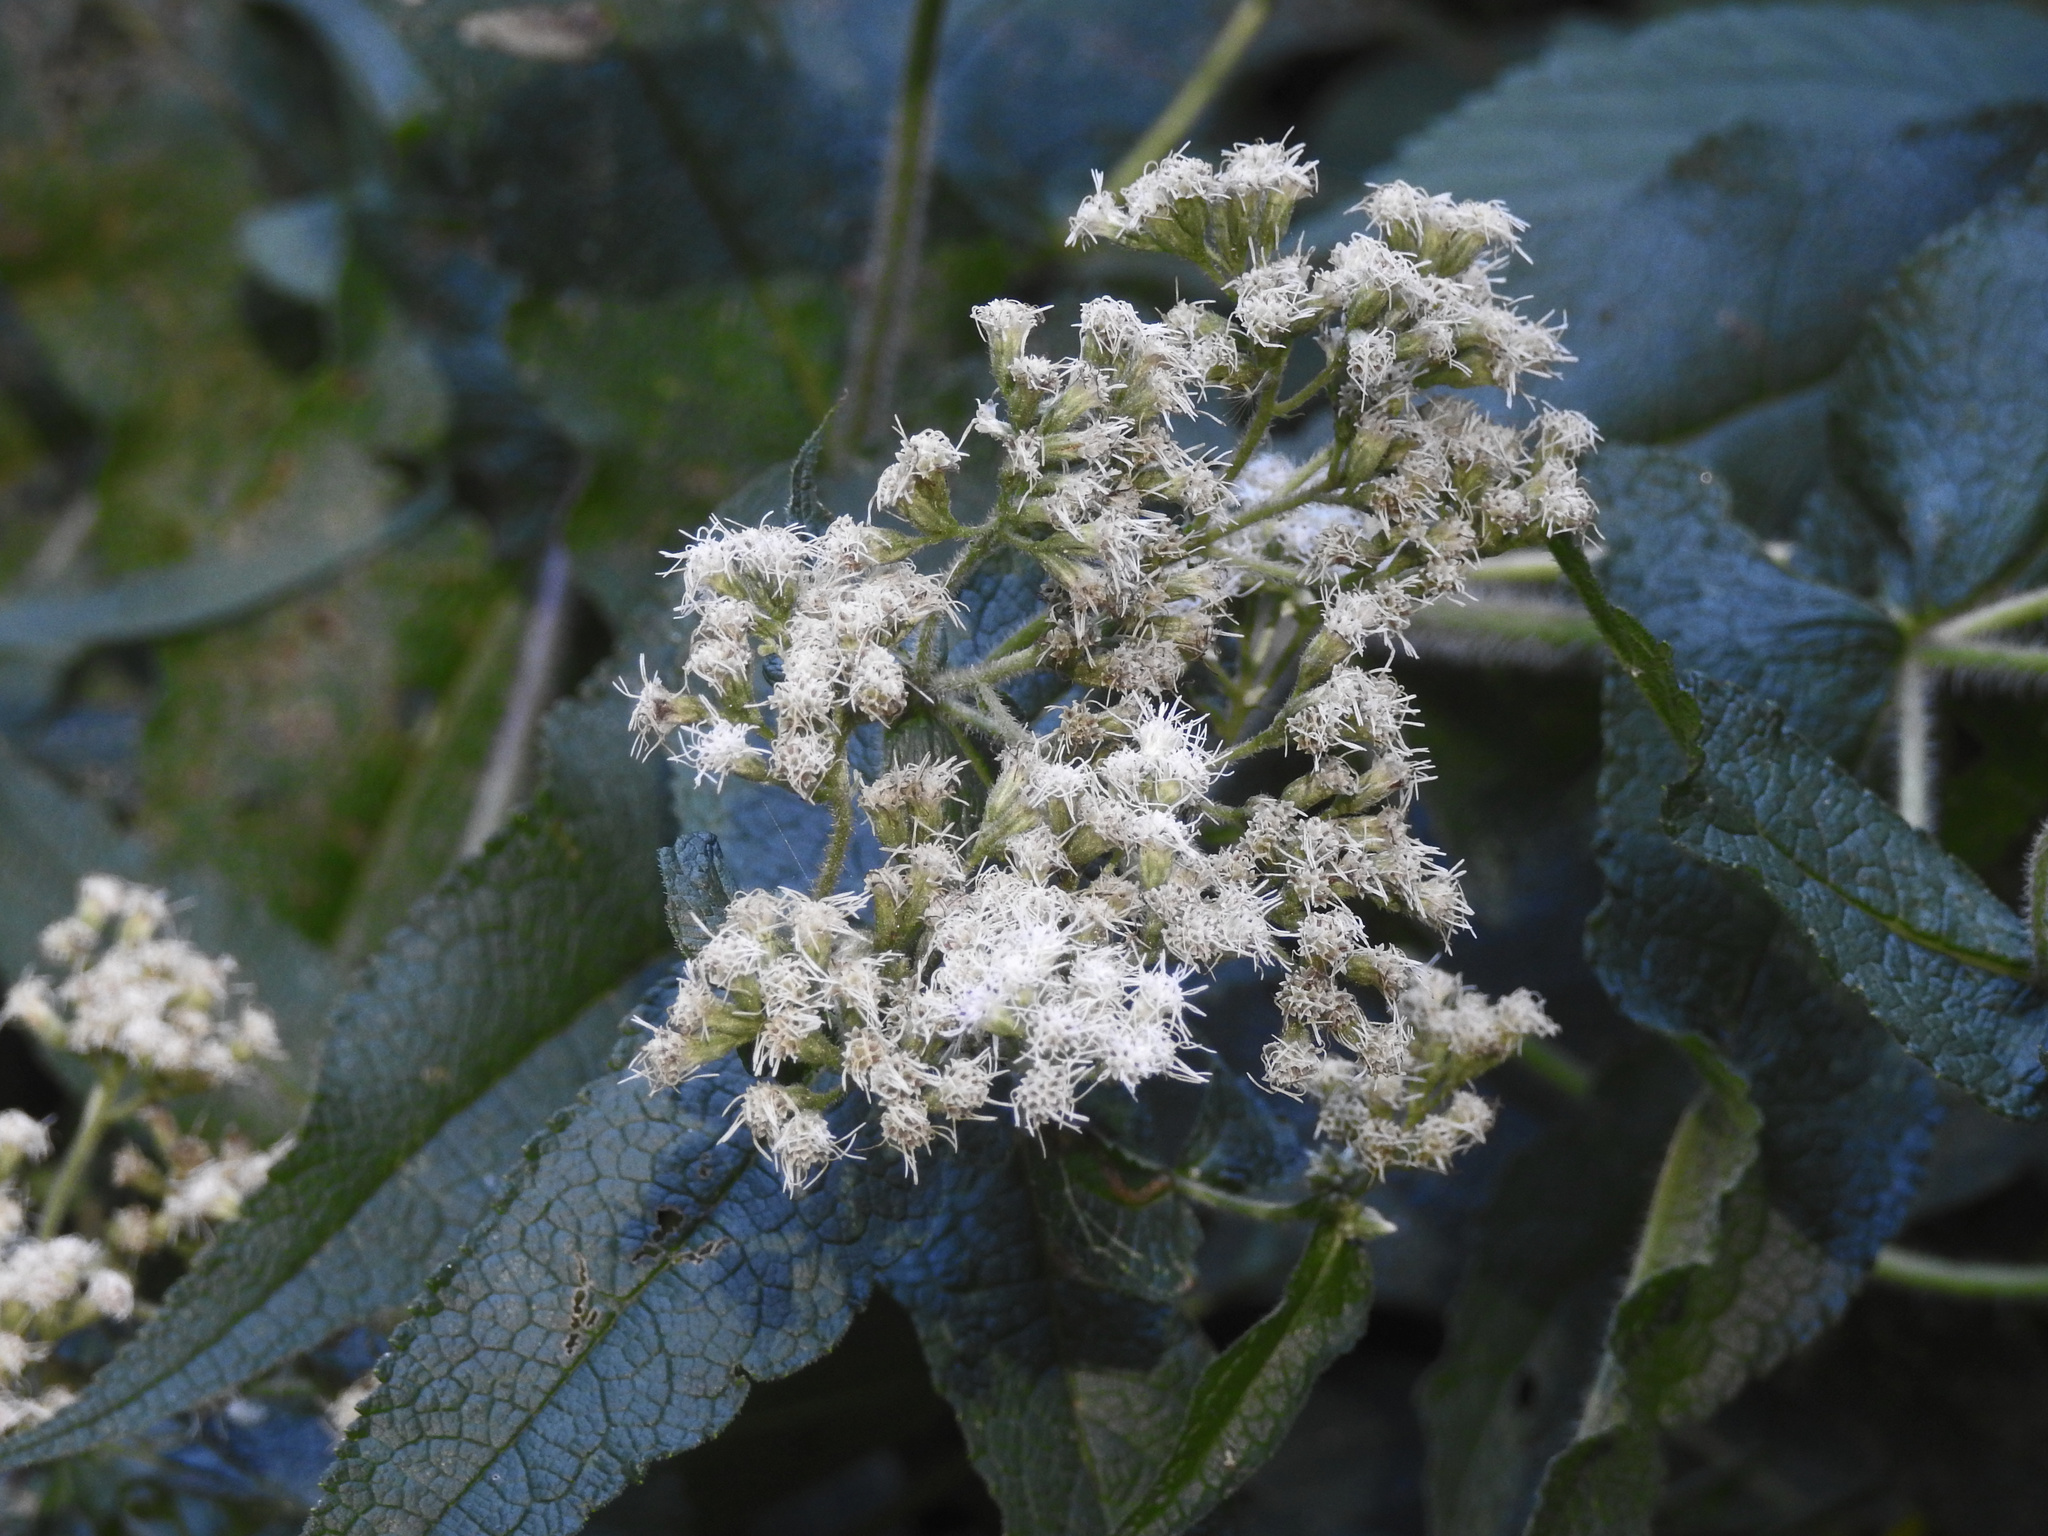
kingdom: Plantae
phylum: Tracheophyta
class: Magnoliopsida
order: Asterales
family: Asteraceae
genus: Eupatorium
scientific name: Eupatorium perfoliatum
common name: Boneset
